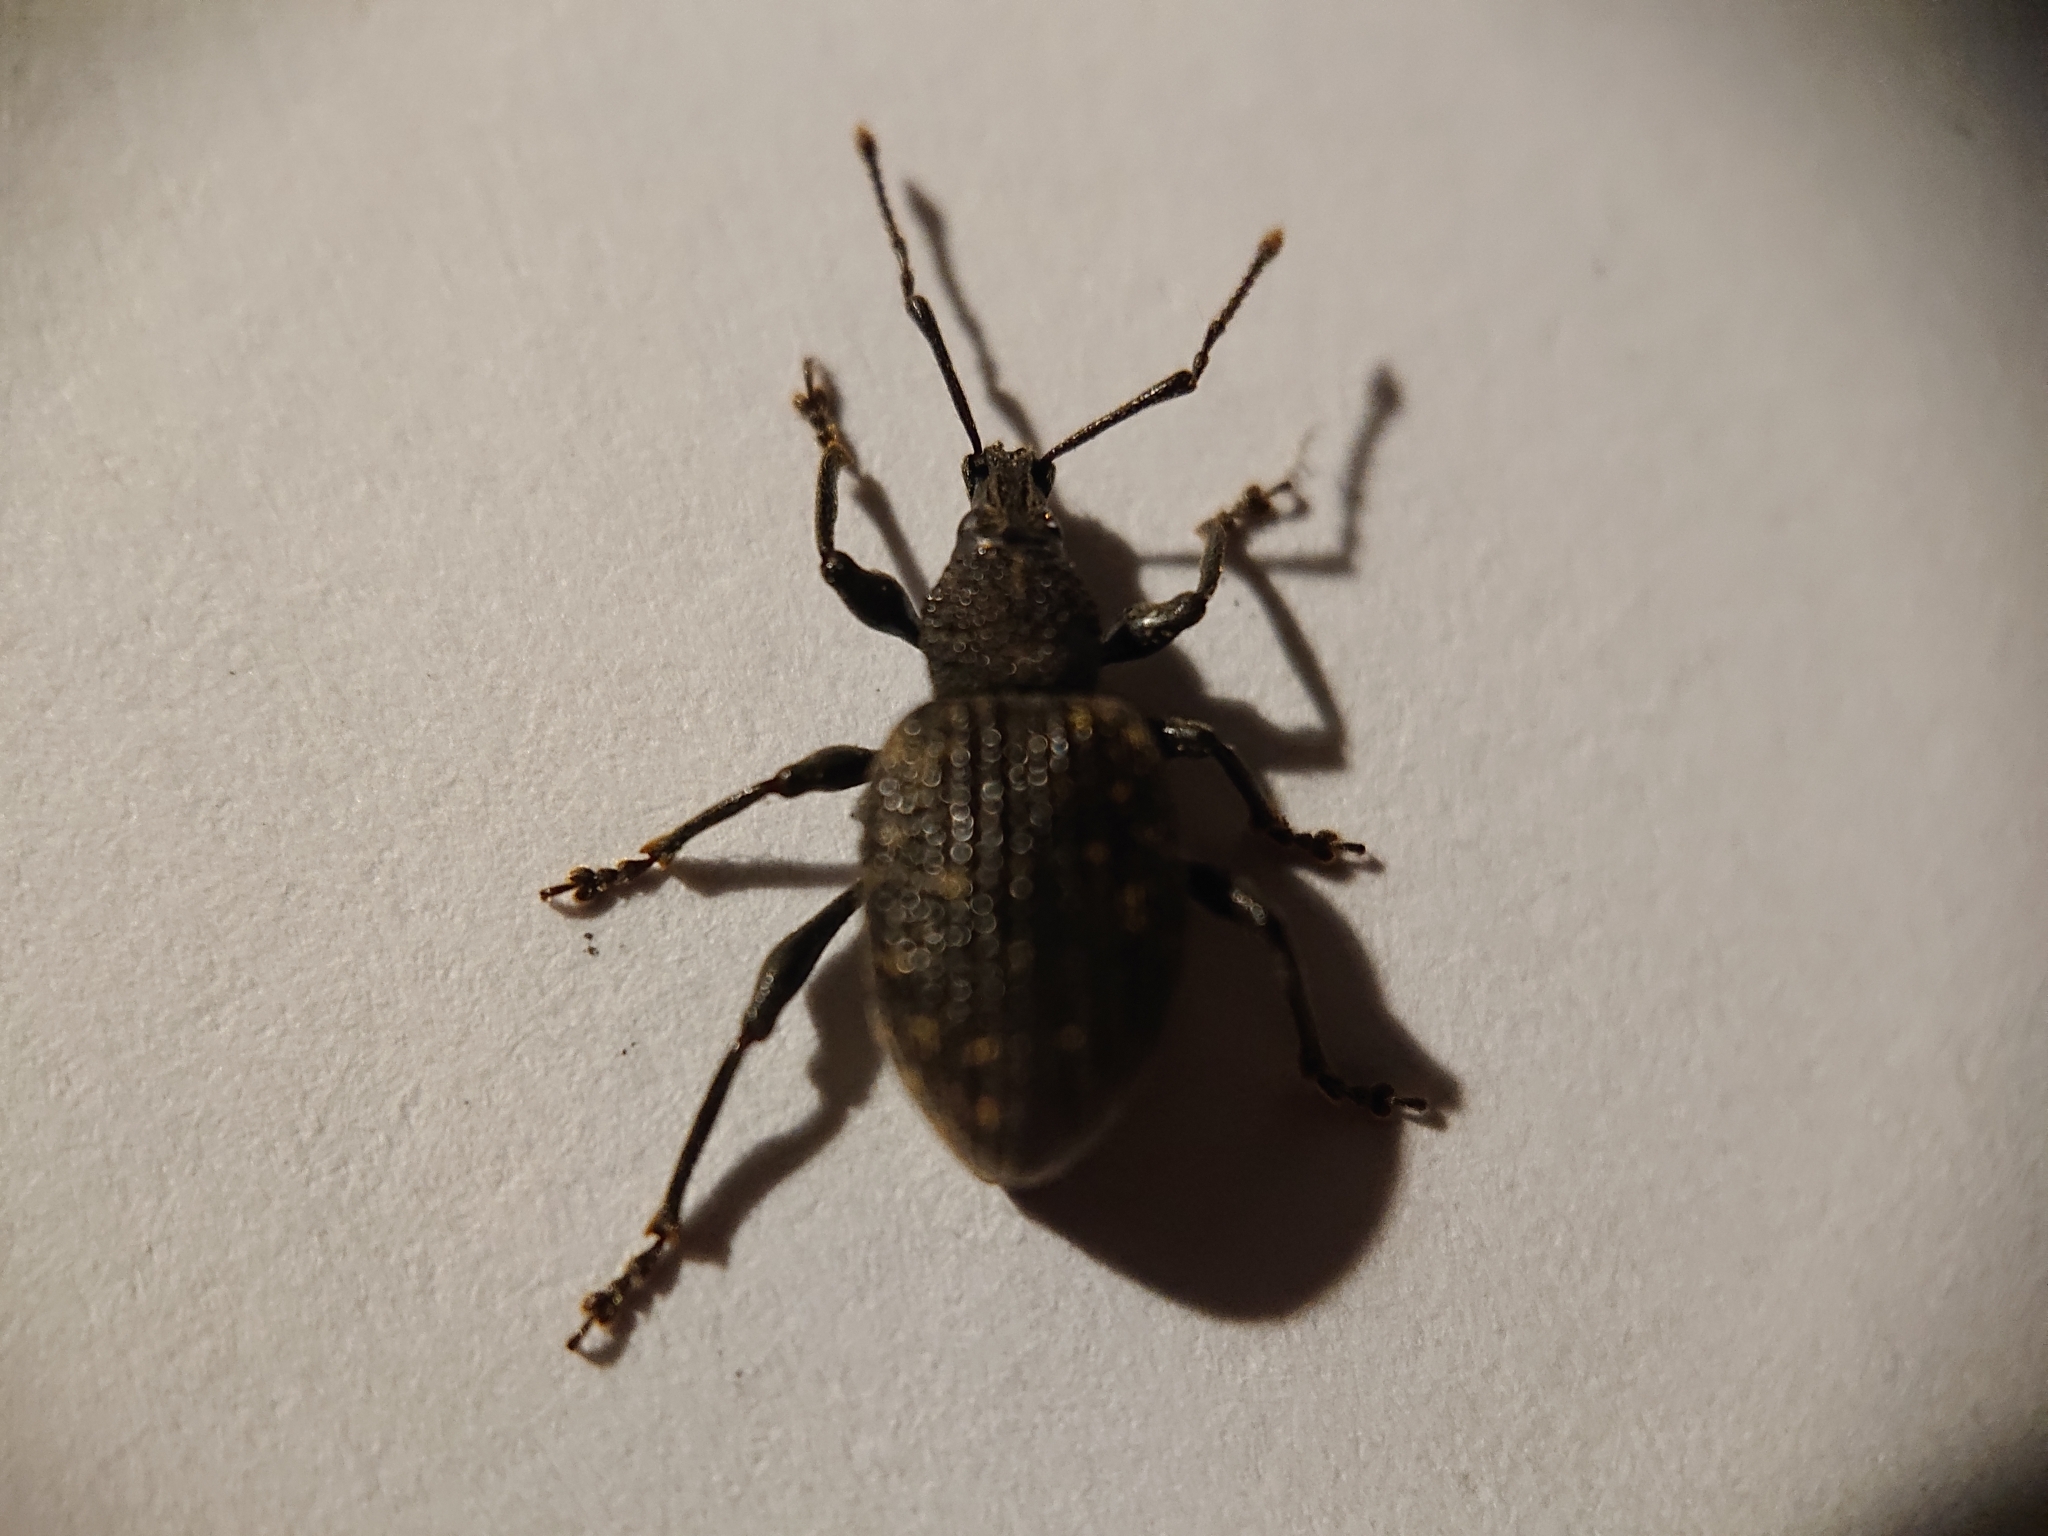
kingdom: Animalia
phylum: Arthropoda
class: Insecta
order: Coleoptera
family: Curculionidae
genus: Otiorhynchus
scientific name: Otiorhynchus sulcatus
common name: Black vine weevil
